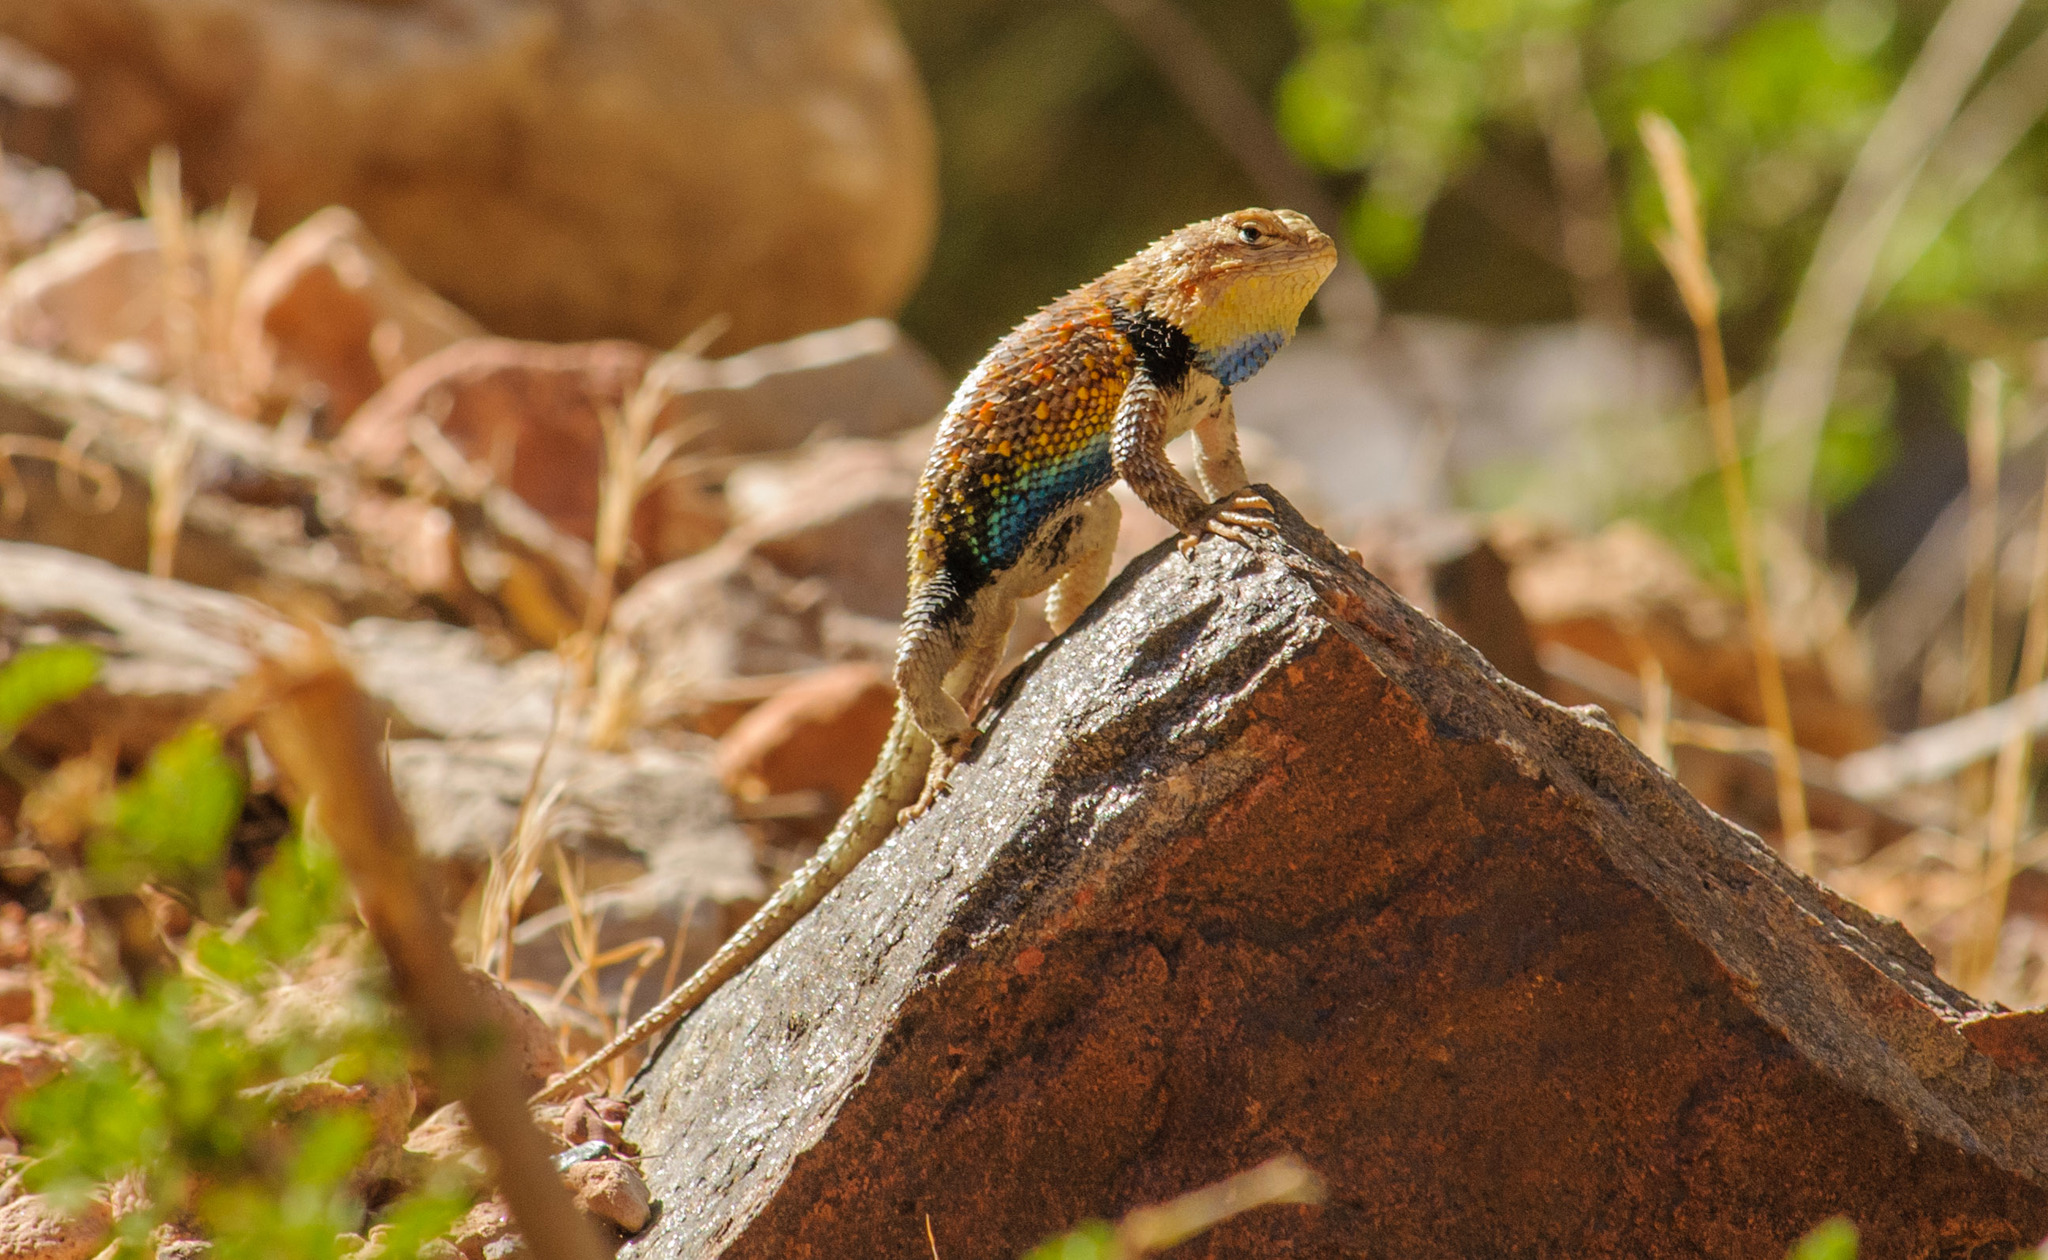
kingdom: Animalia
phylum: Chordata
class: Squamata
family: Phrynosomatidae
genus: Sceloporus
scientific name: Sceloporus magister
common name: Desert spiny lizard
